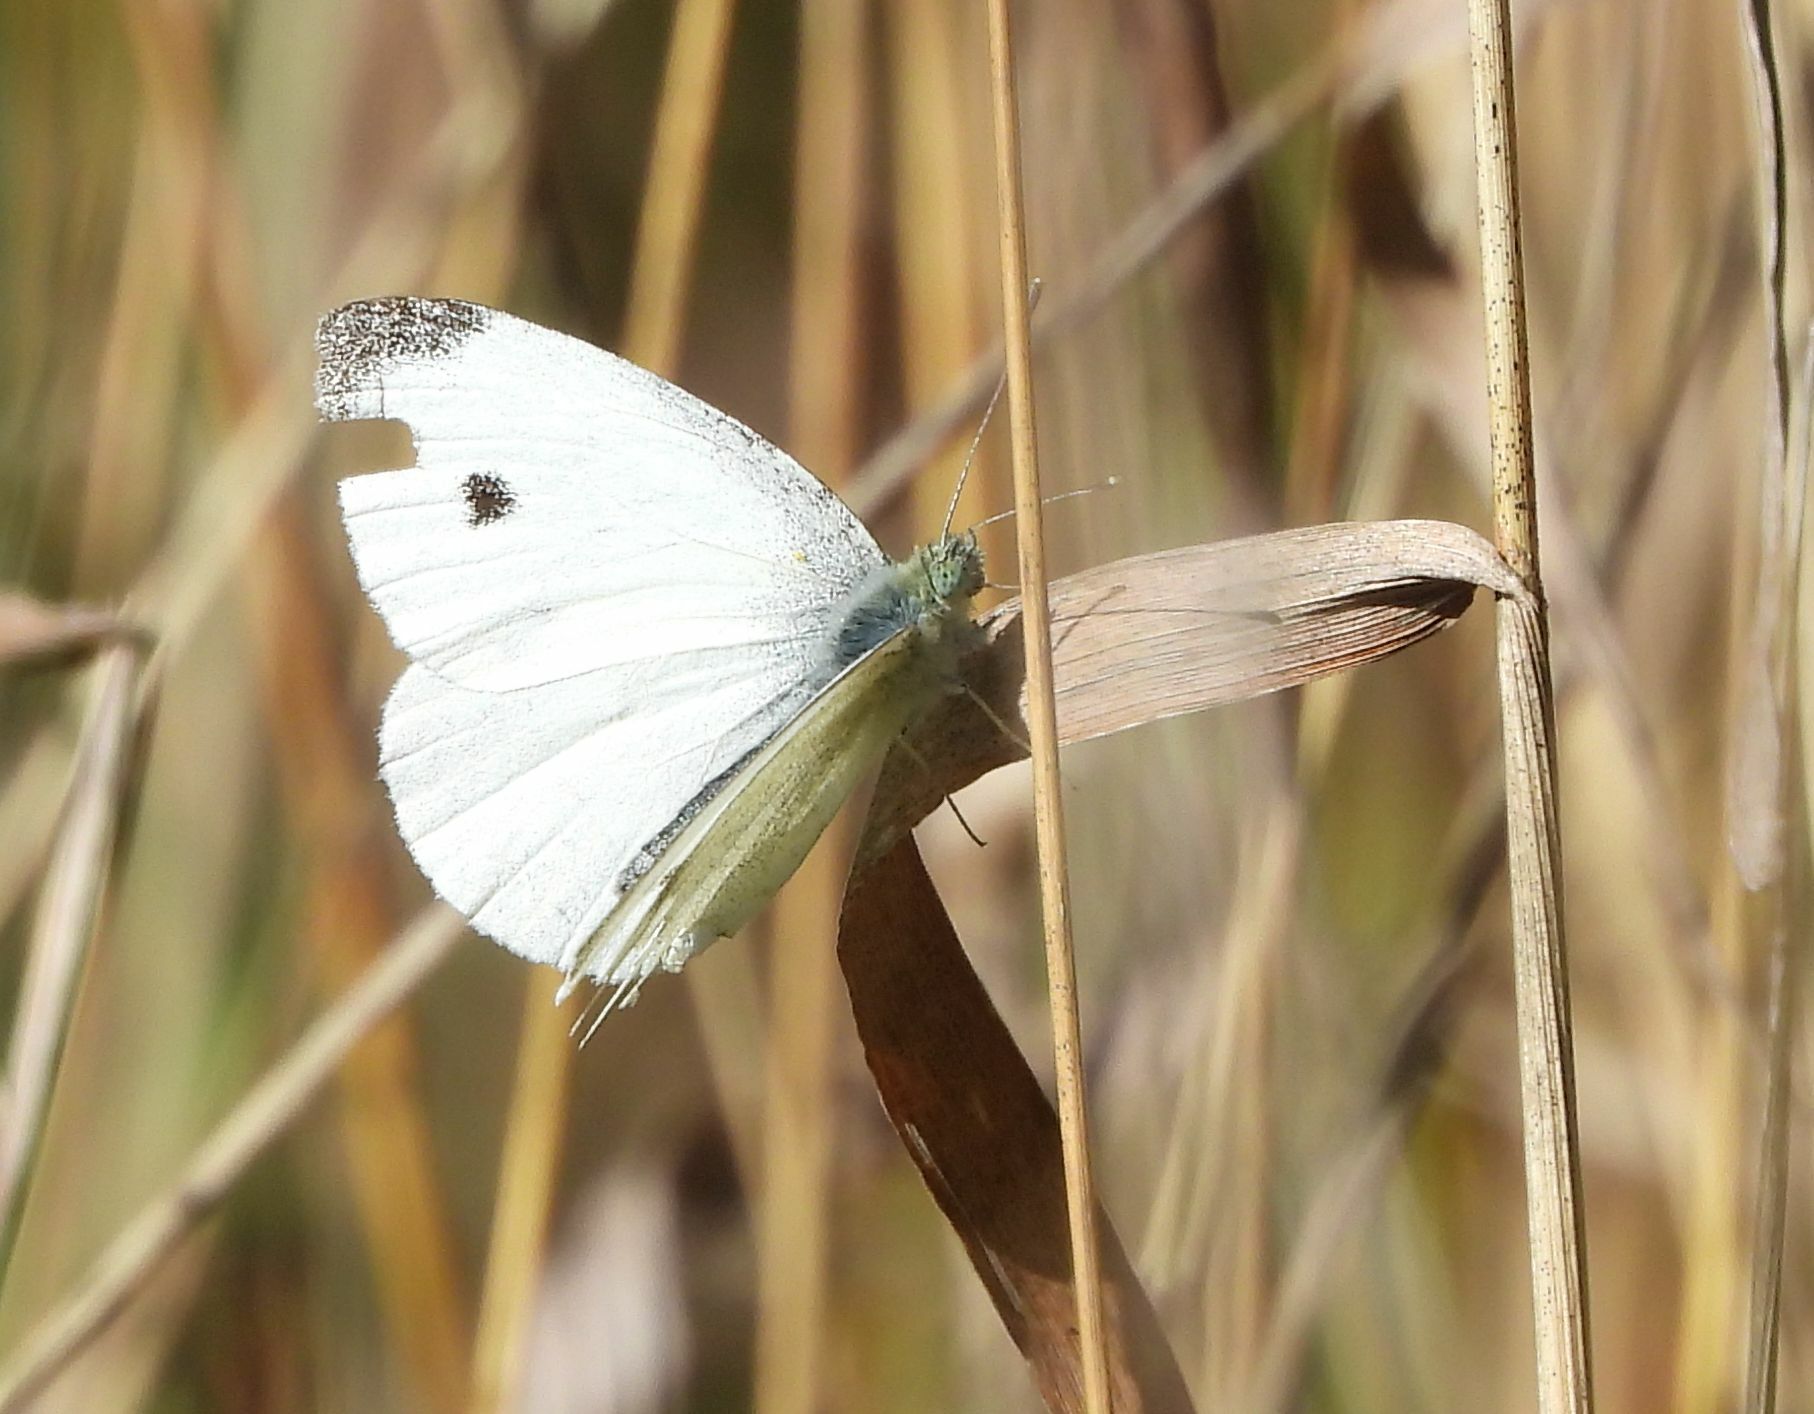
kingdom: Animalia
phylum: Arthropoda
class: Insecta
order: Lepidoptera
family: Pieridae
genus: Pieris
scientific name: Pieris rapae
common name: Small white
